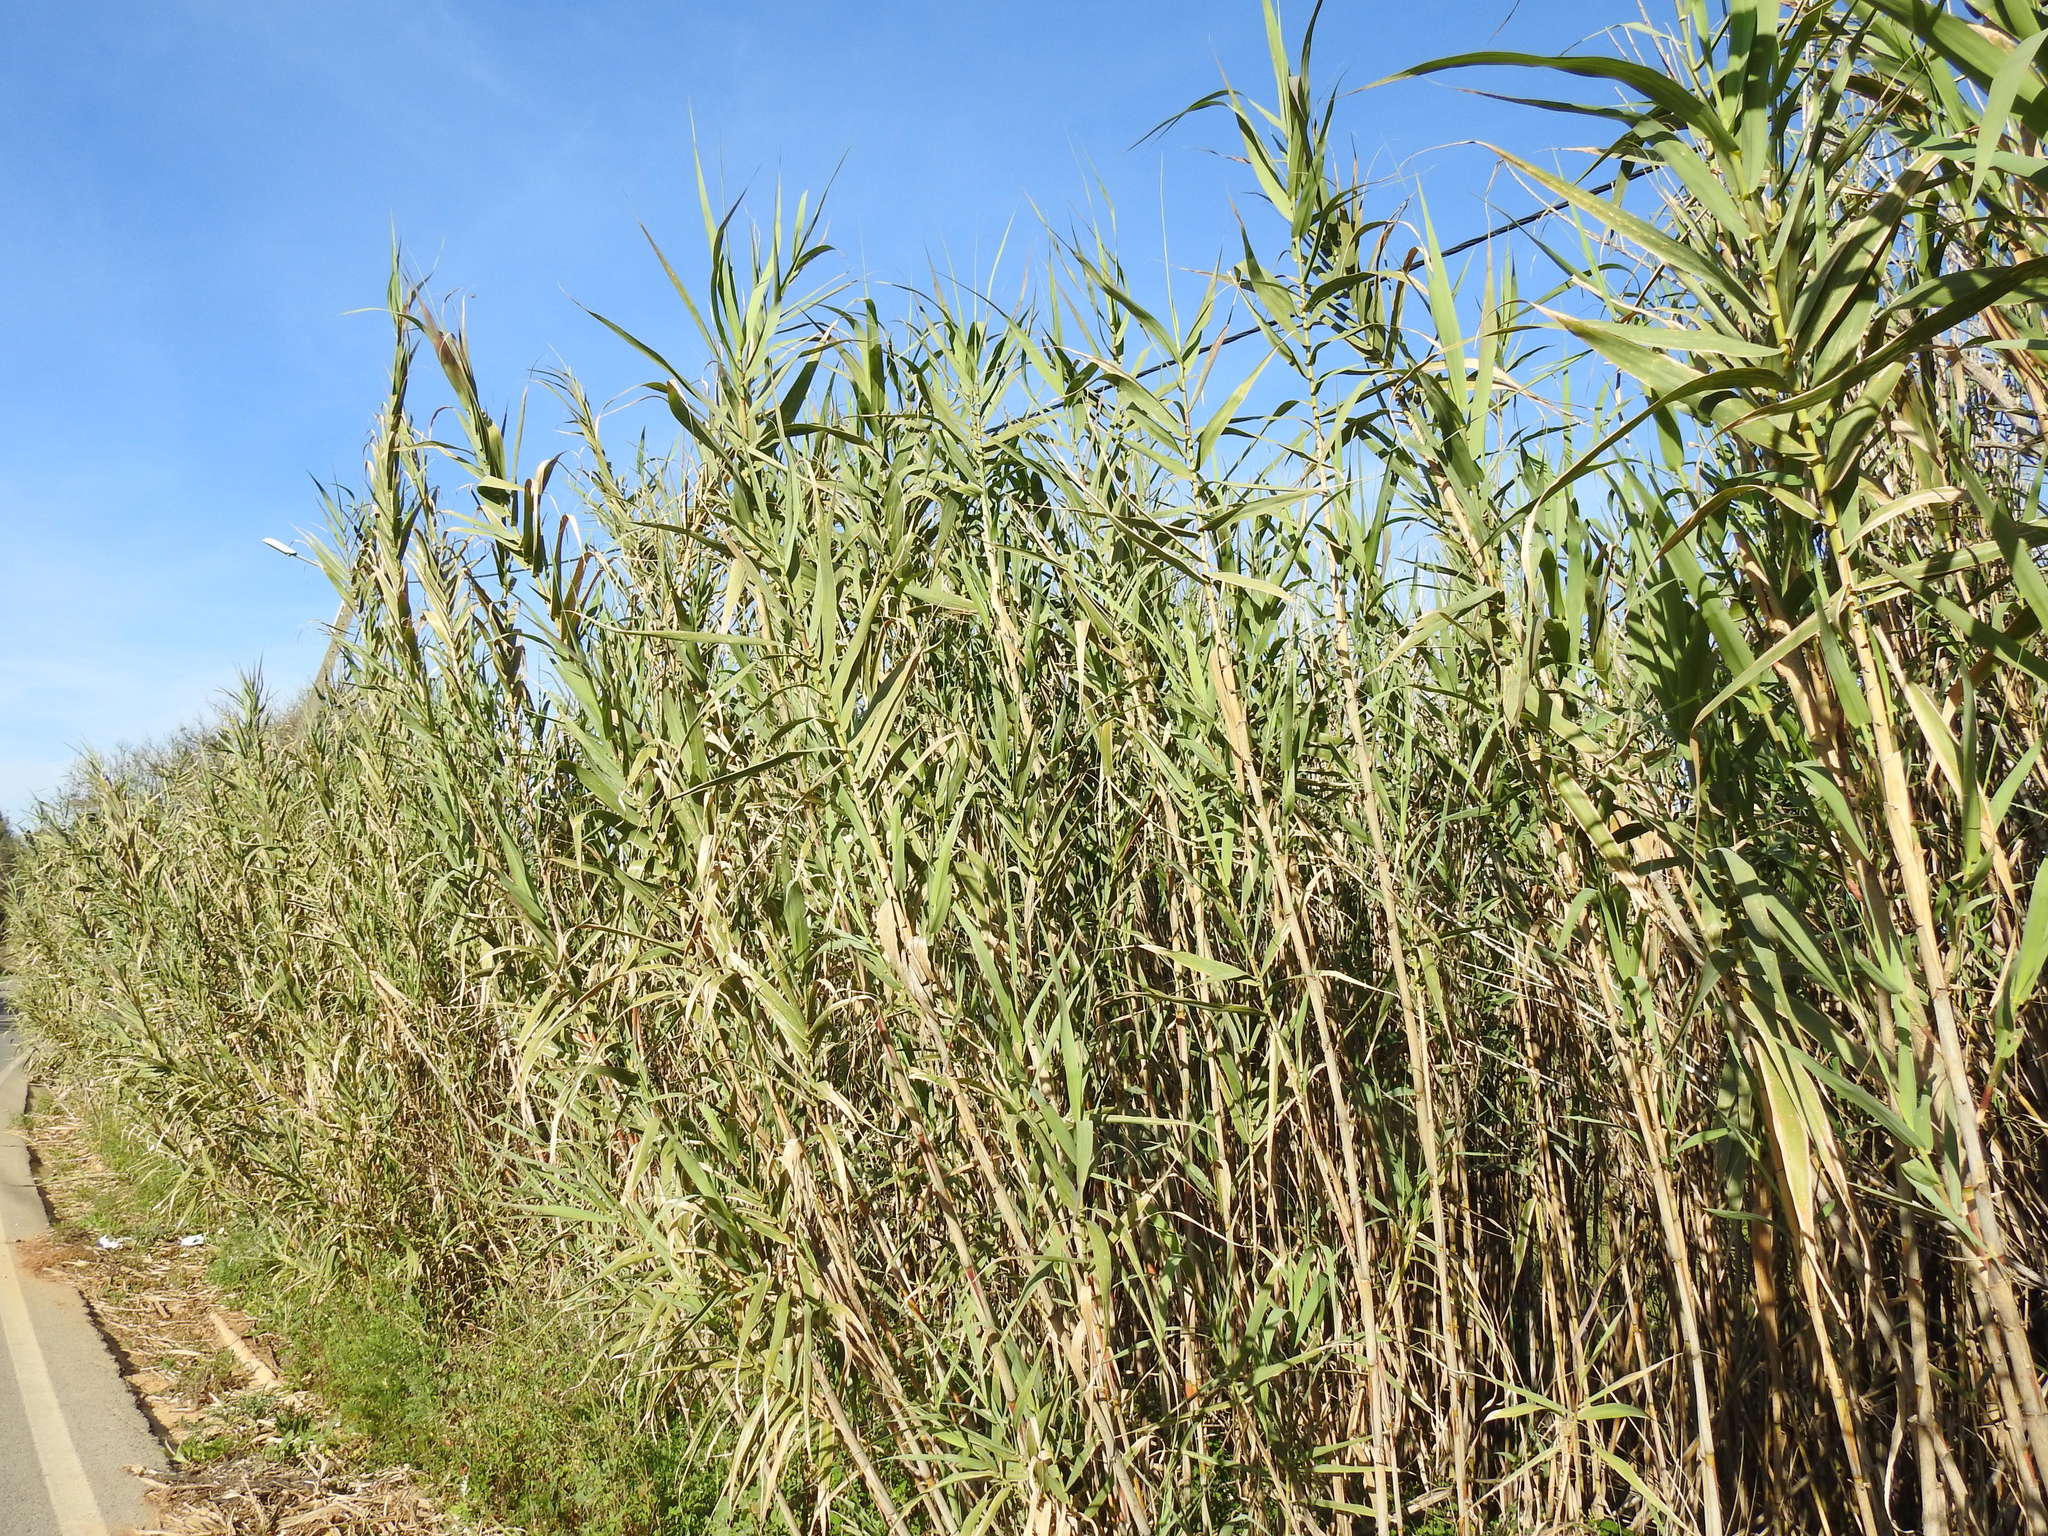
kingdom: Plantae
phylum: Tracheophyta
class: Liliopsida
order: Poales
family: Poaceae
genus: Arundo
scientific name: Arundo donax
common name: Giant reed
